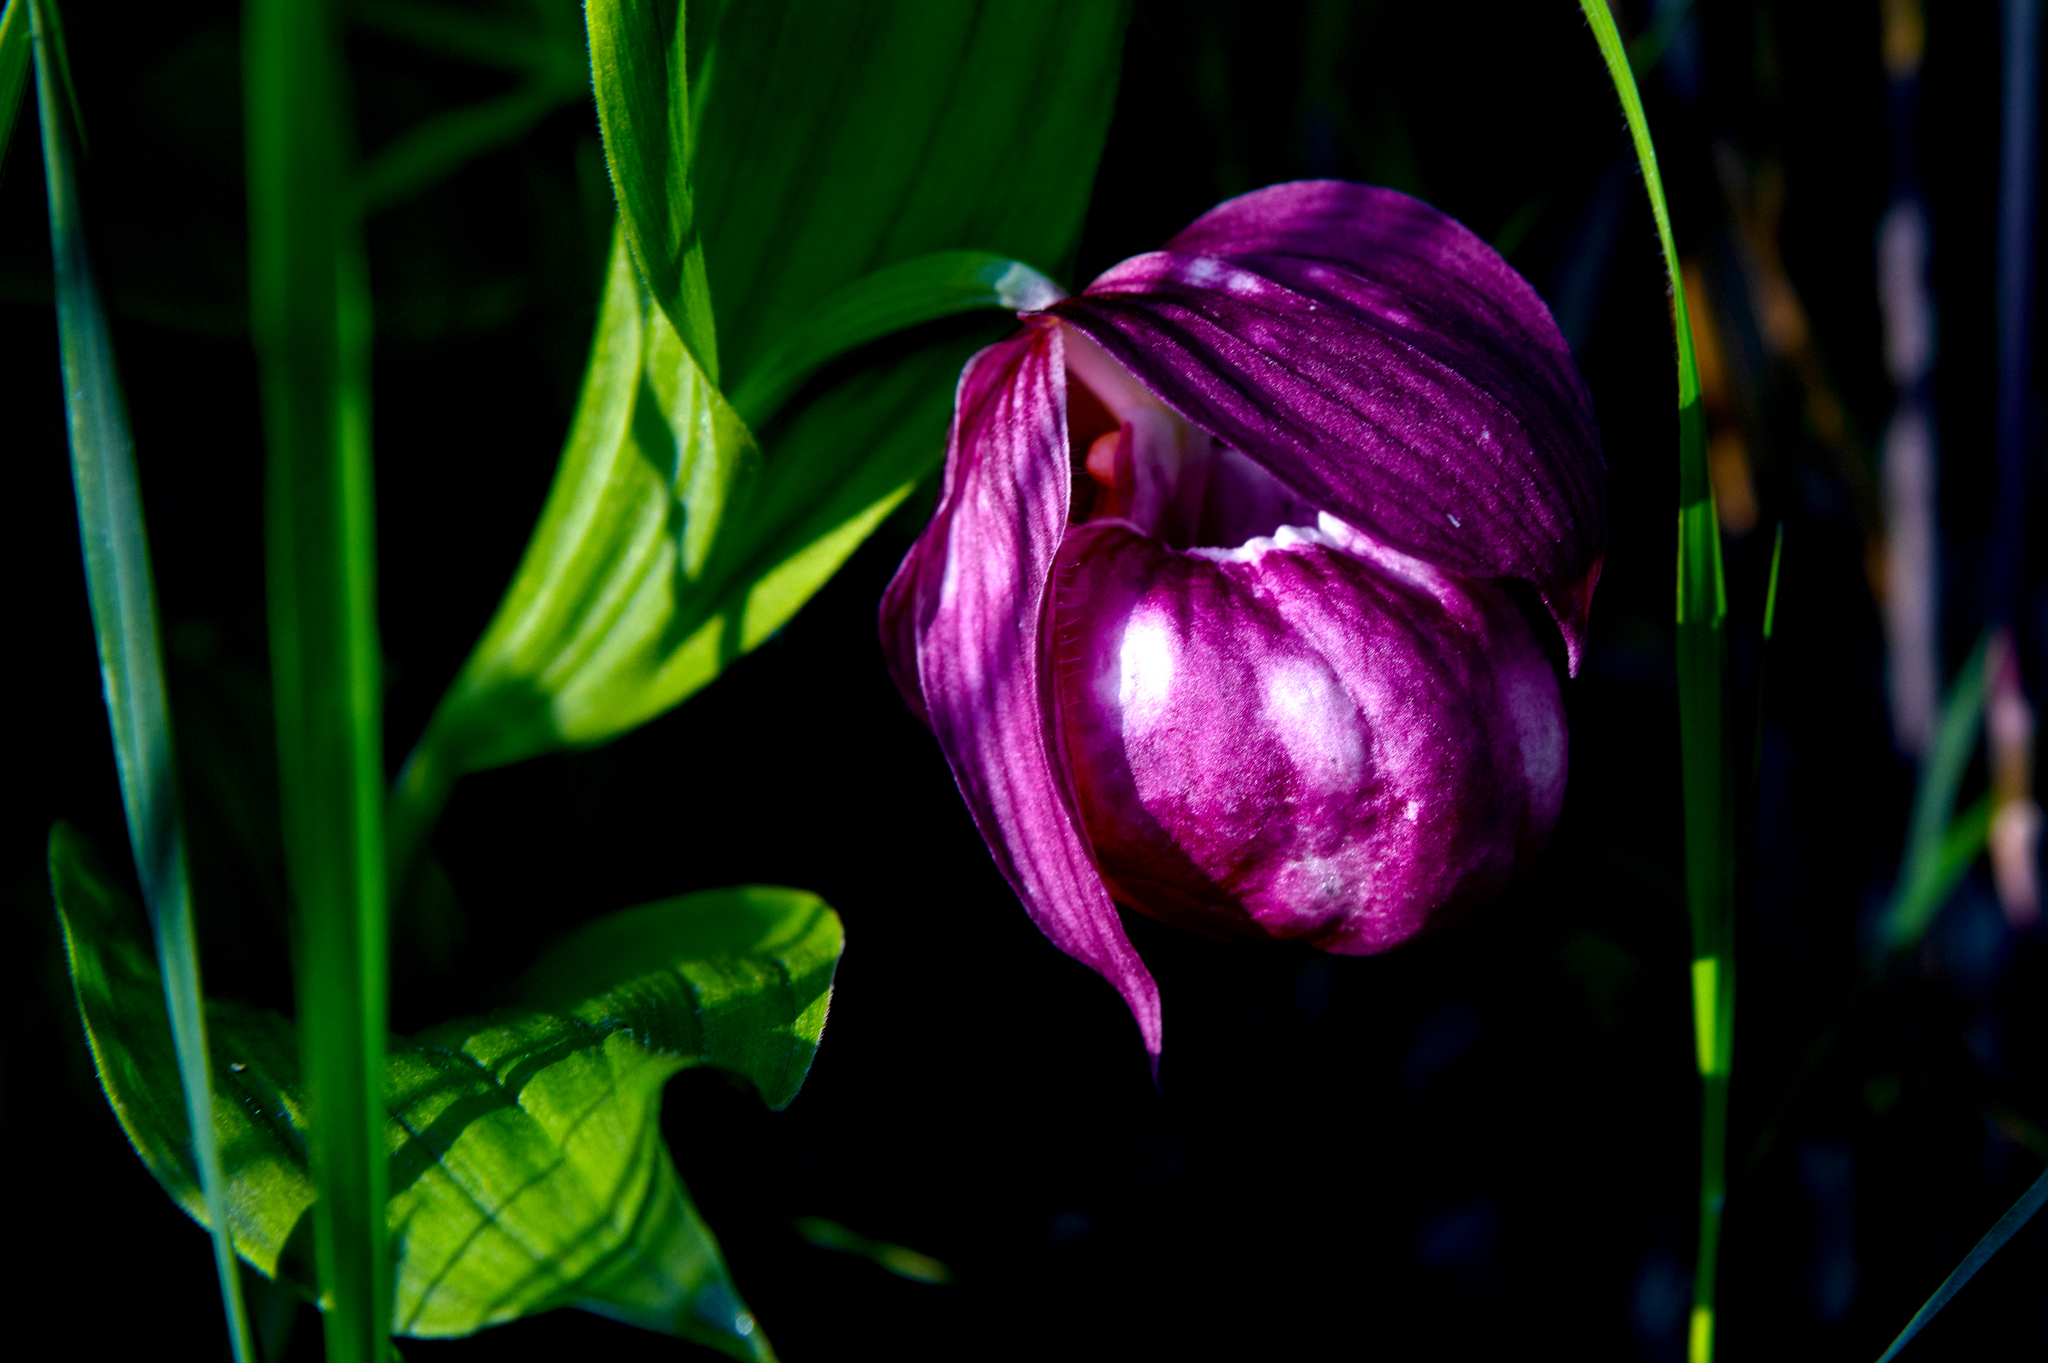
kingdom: Plantae
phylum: Tracheophyta
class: Liliopsida
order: Asparagales
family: Orchidaceae
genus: Cypripedium
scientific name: Cypripedium macranthos
